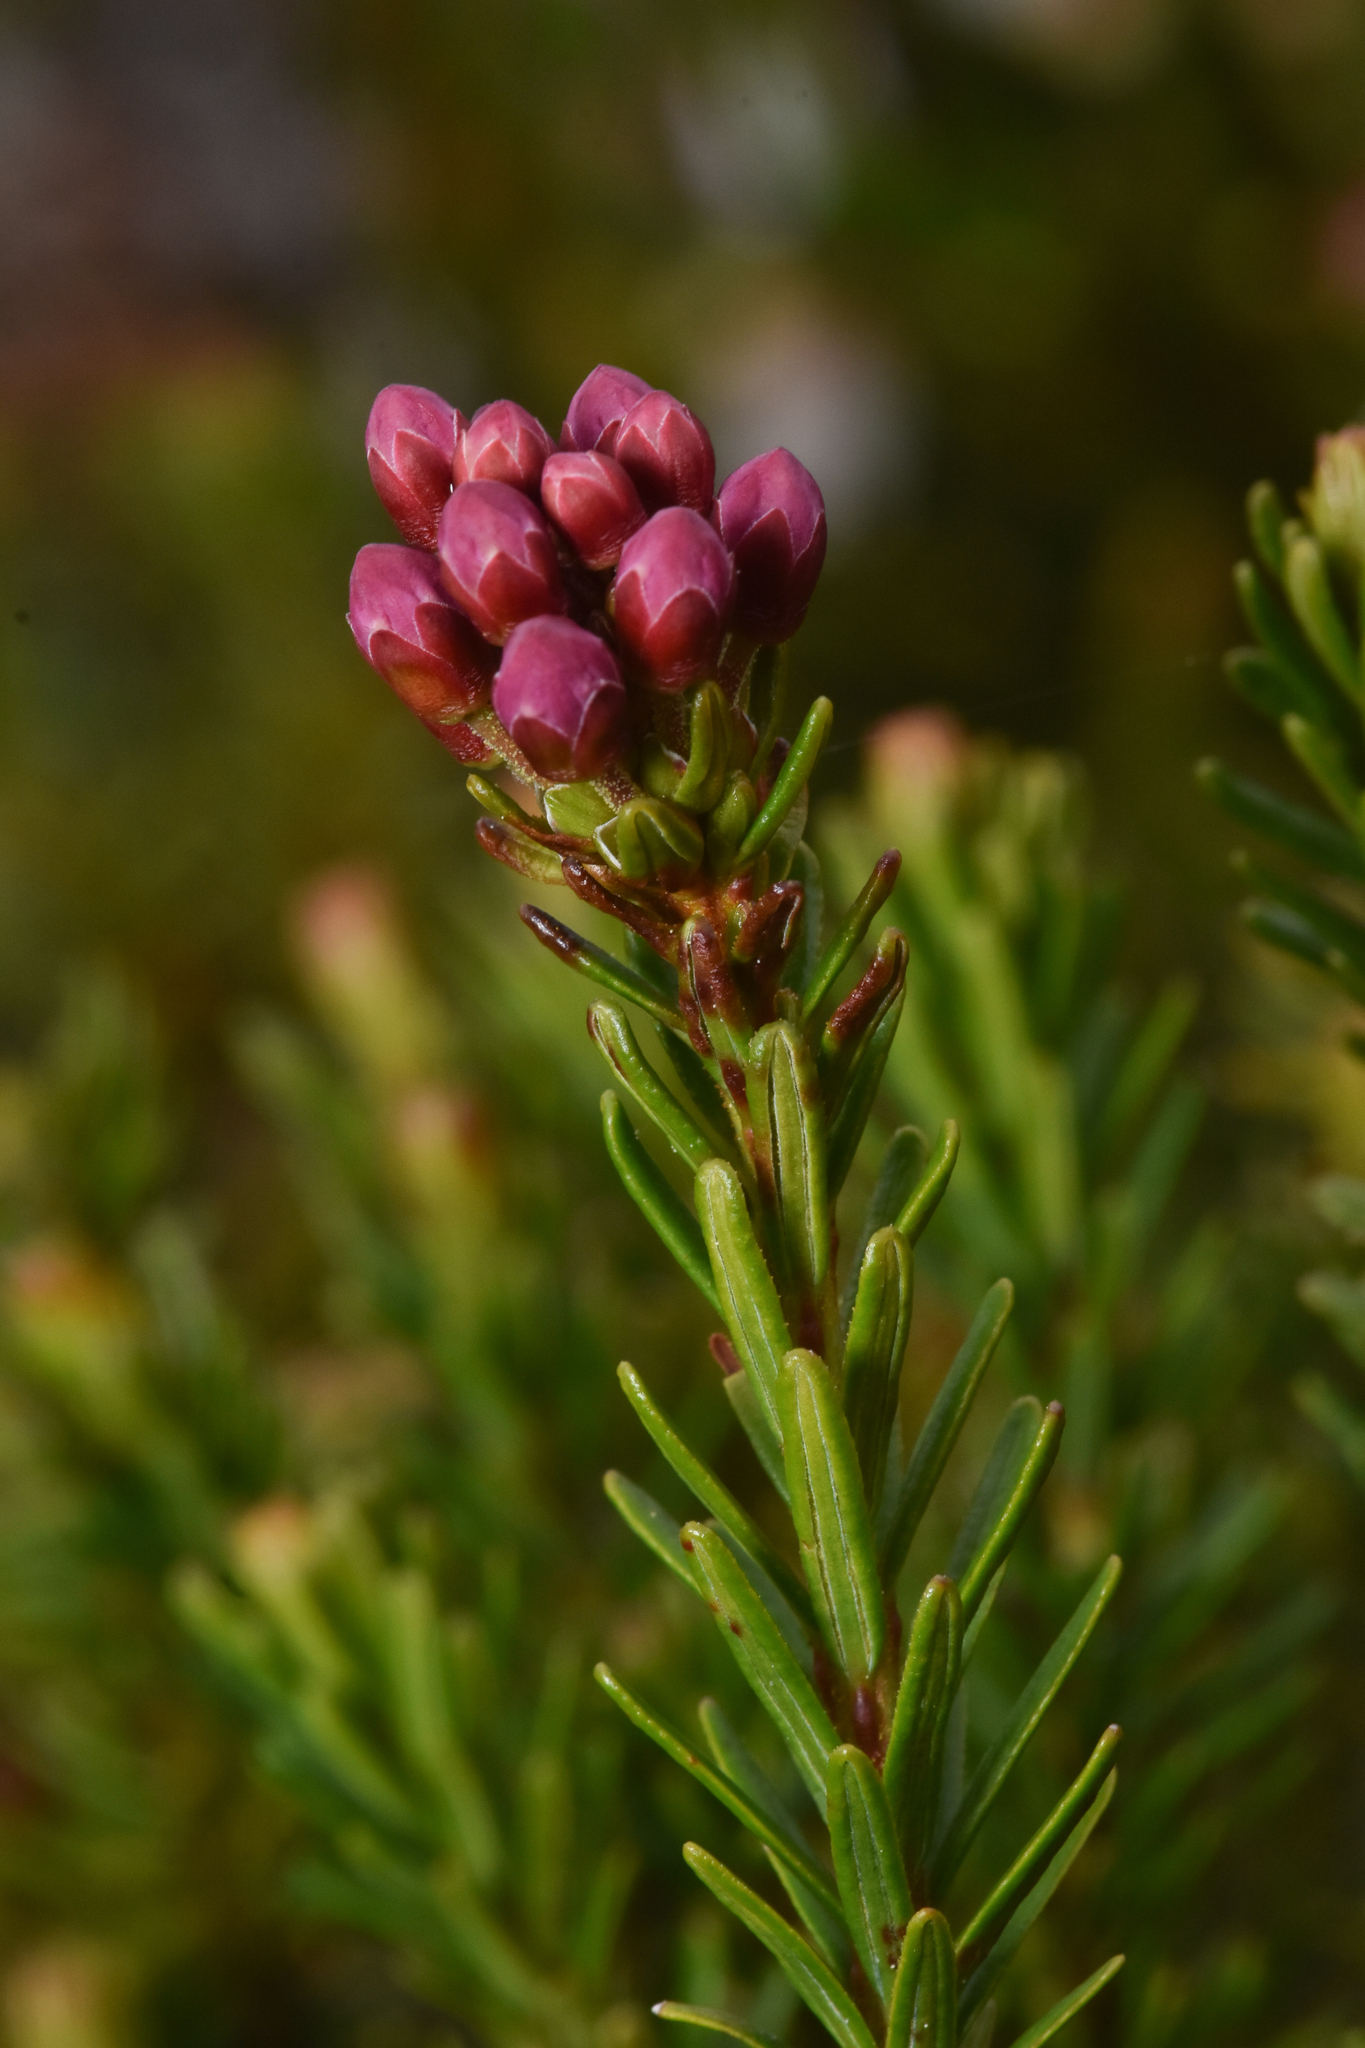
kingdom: Plantae
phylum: Tracheophyta
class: Magnoliopsida
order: Ericales
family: Ericaceae
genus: Phyllodoce
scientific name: Phyllodoce empetriformis
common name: Pink mountain heather
